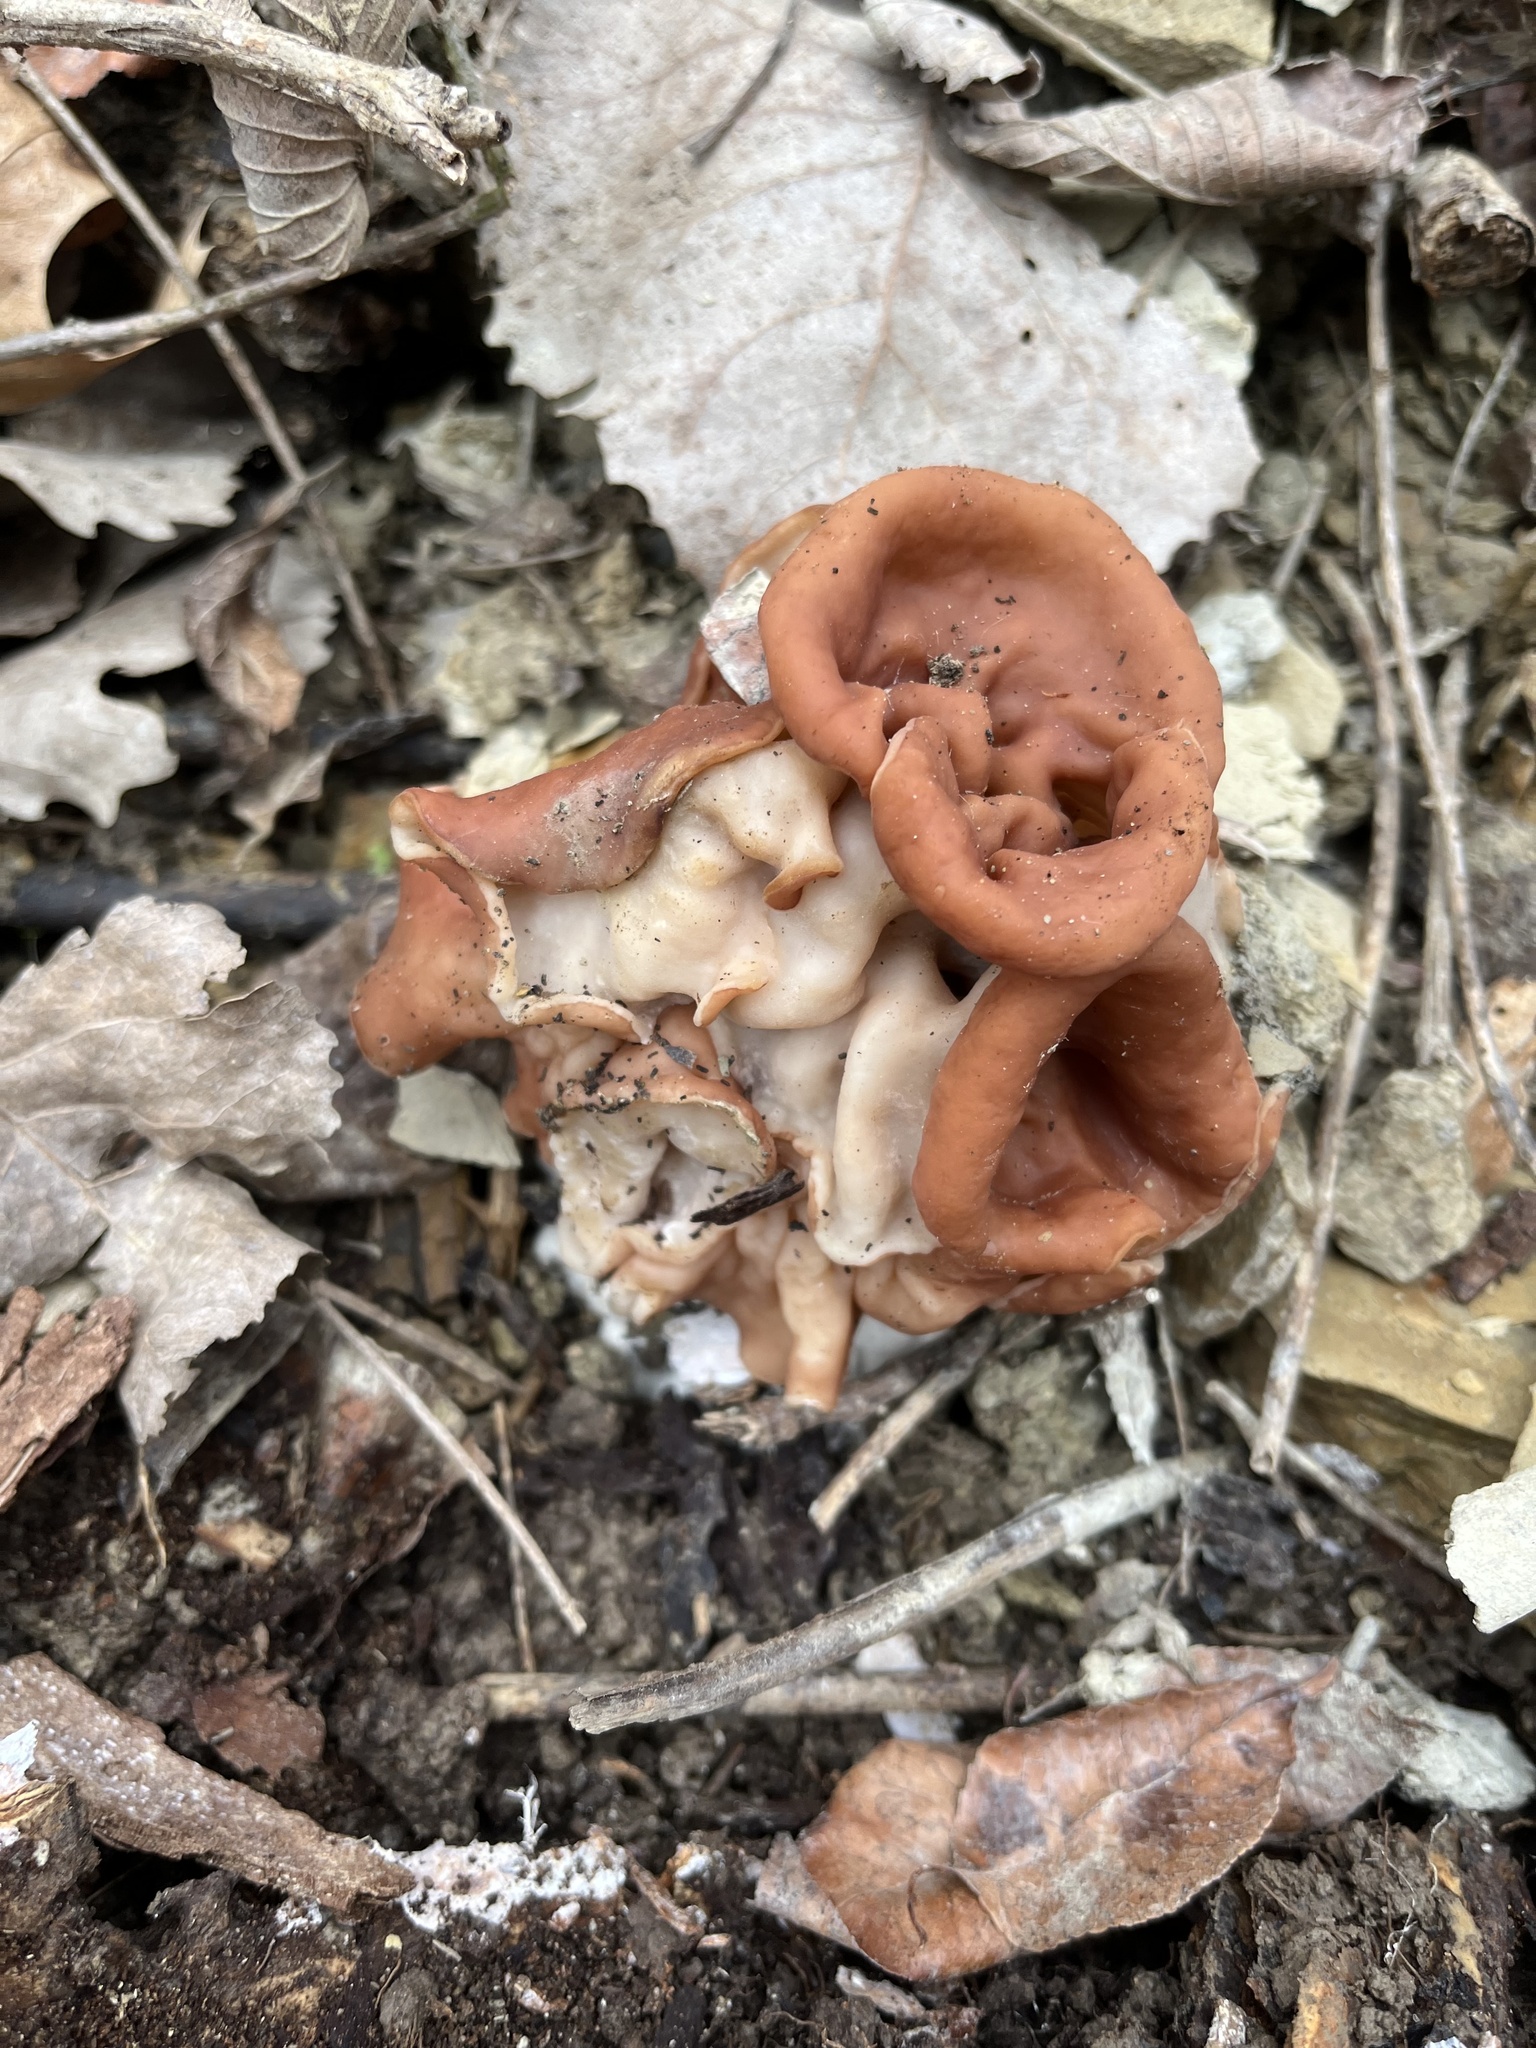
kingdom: Fungi
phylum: Ascomycota
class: Pezizomycetes
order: Pezizales
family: Discinaceae
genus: Discina
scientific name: Discina brunnea
